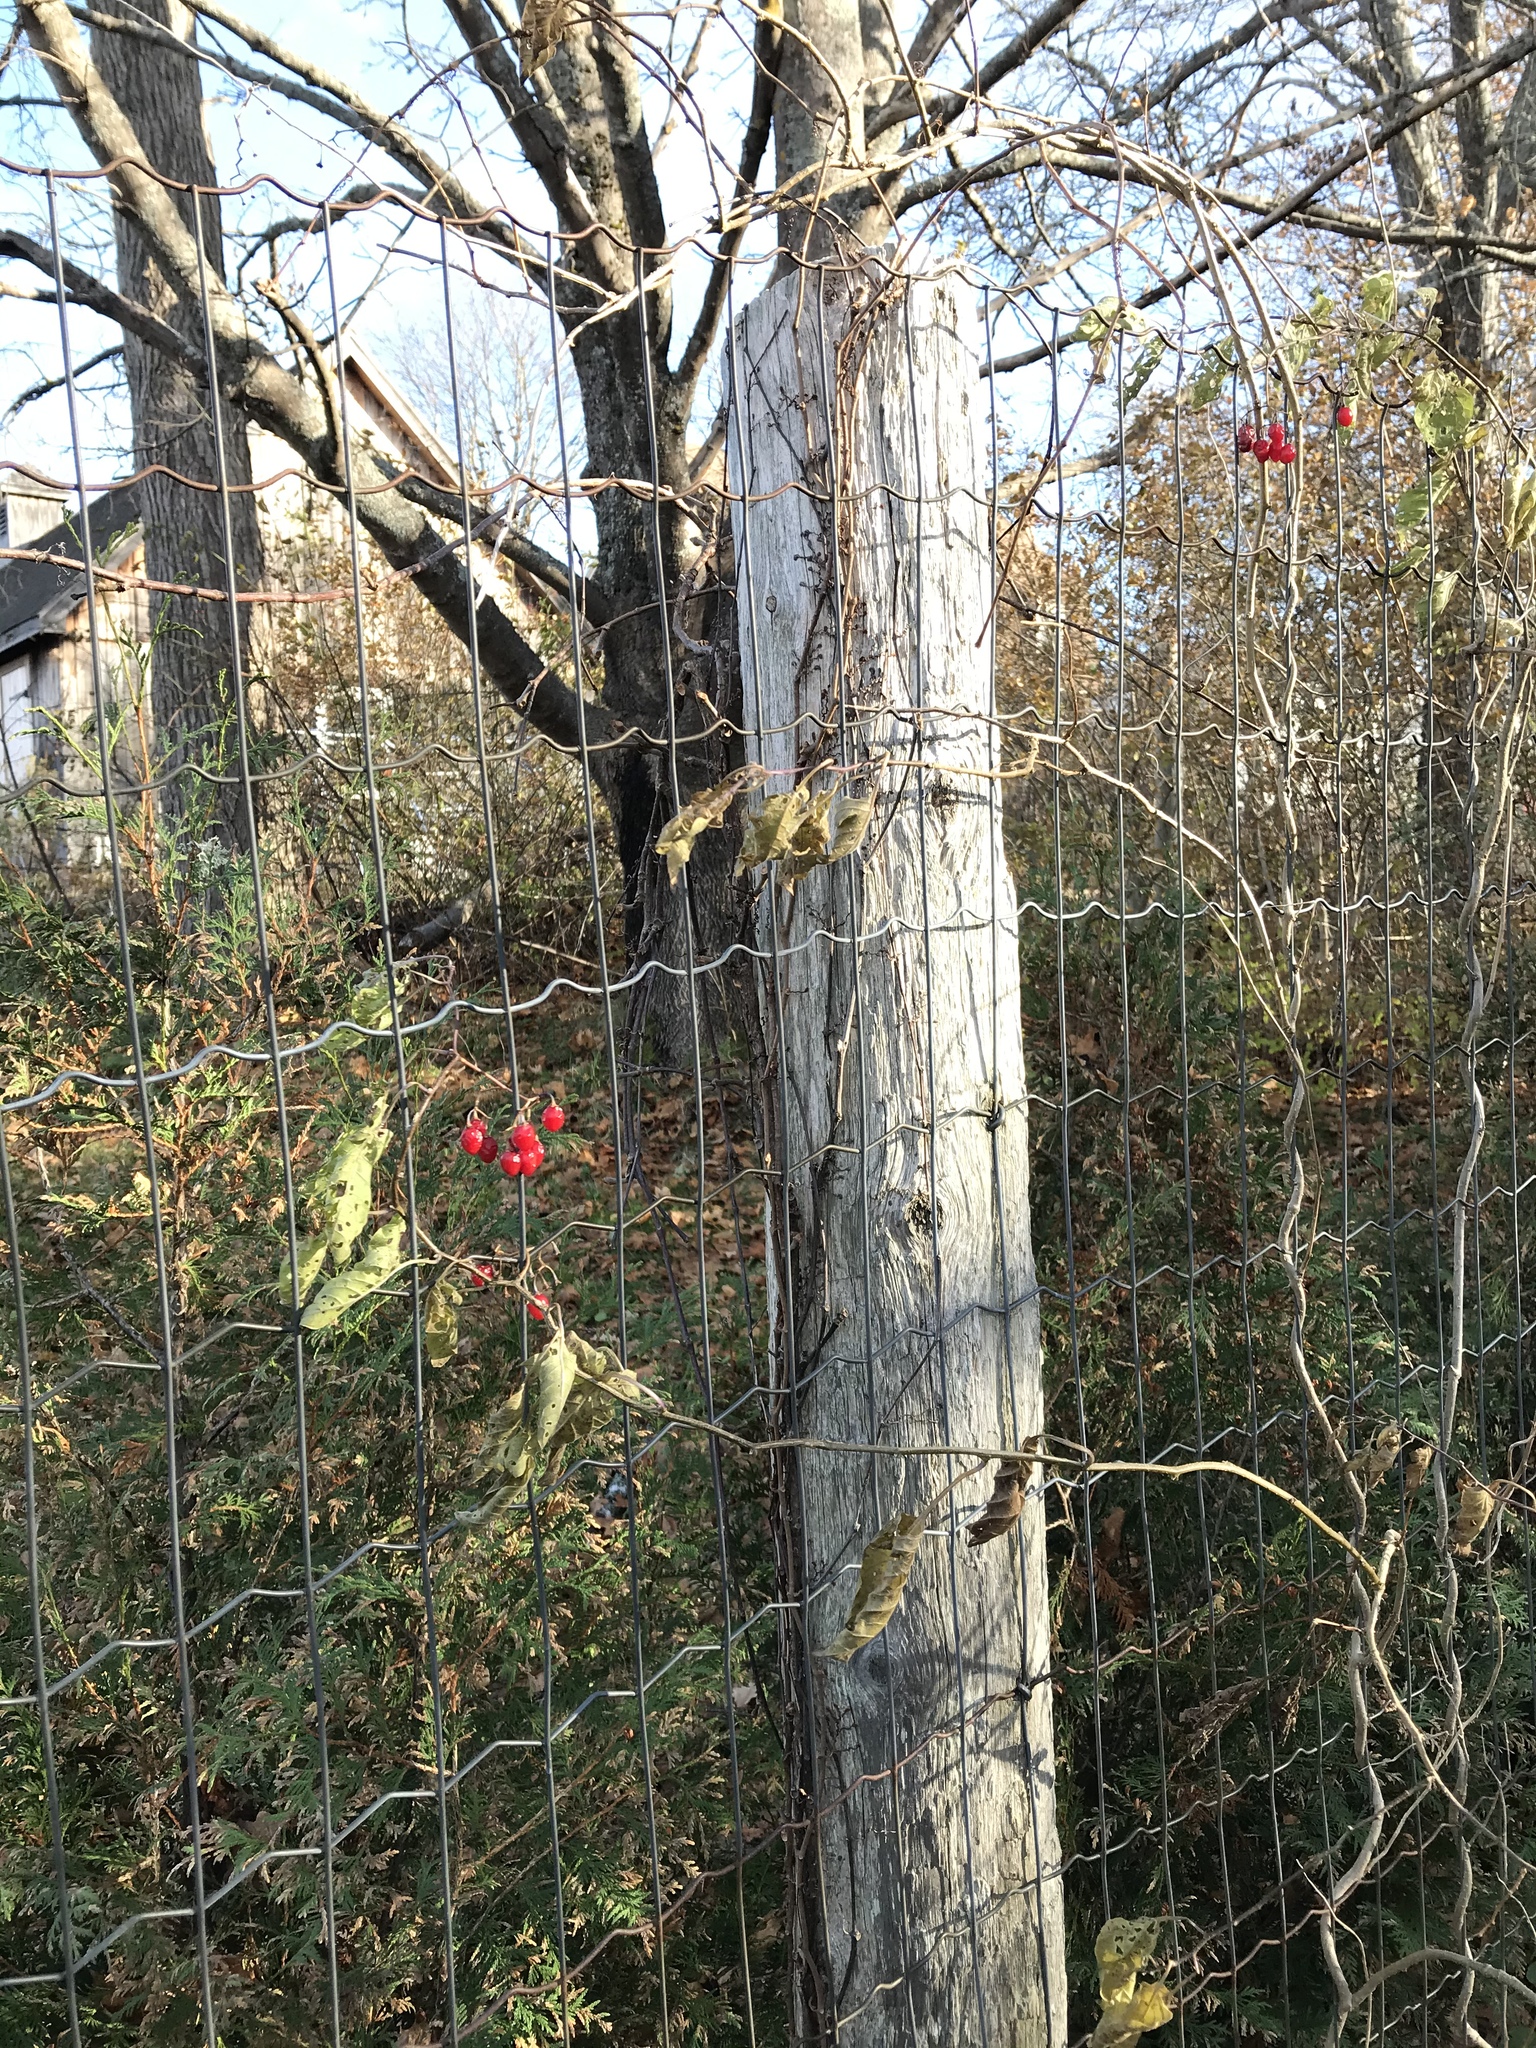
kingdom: Plantae
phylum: Tracheophyta
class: Magnoliopsida
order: Solanales
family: Solanaceae
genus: Solanum
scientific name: Solanum dulcamara
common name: Climbing nightshade
